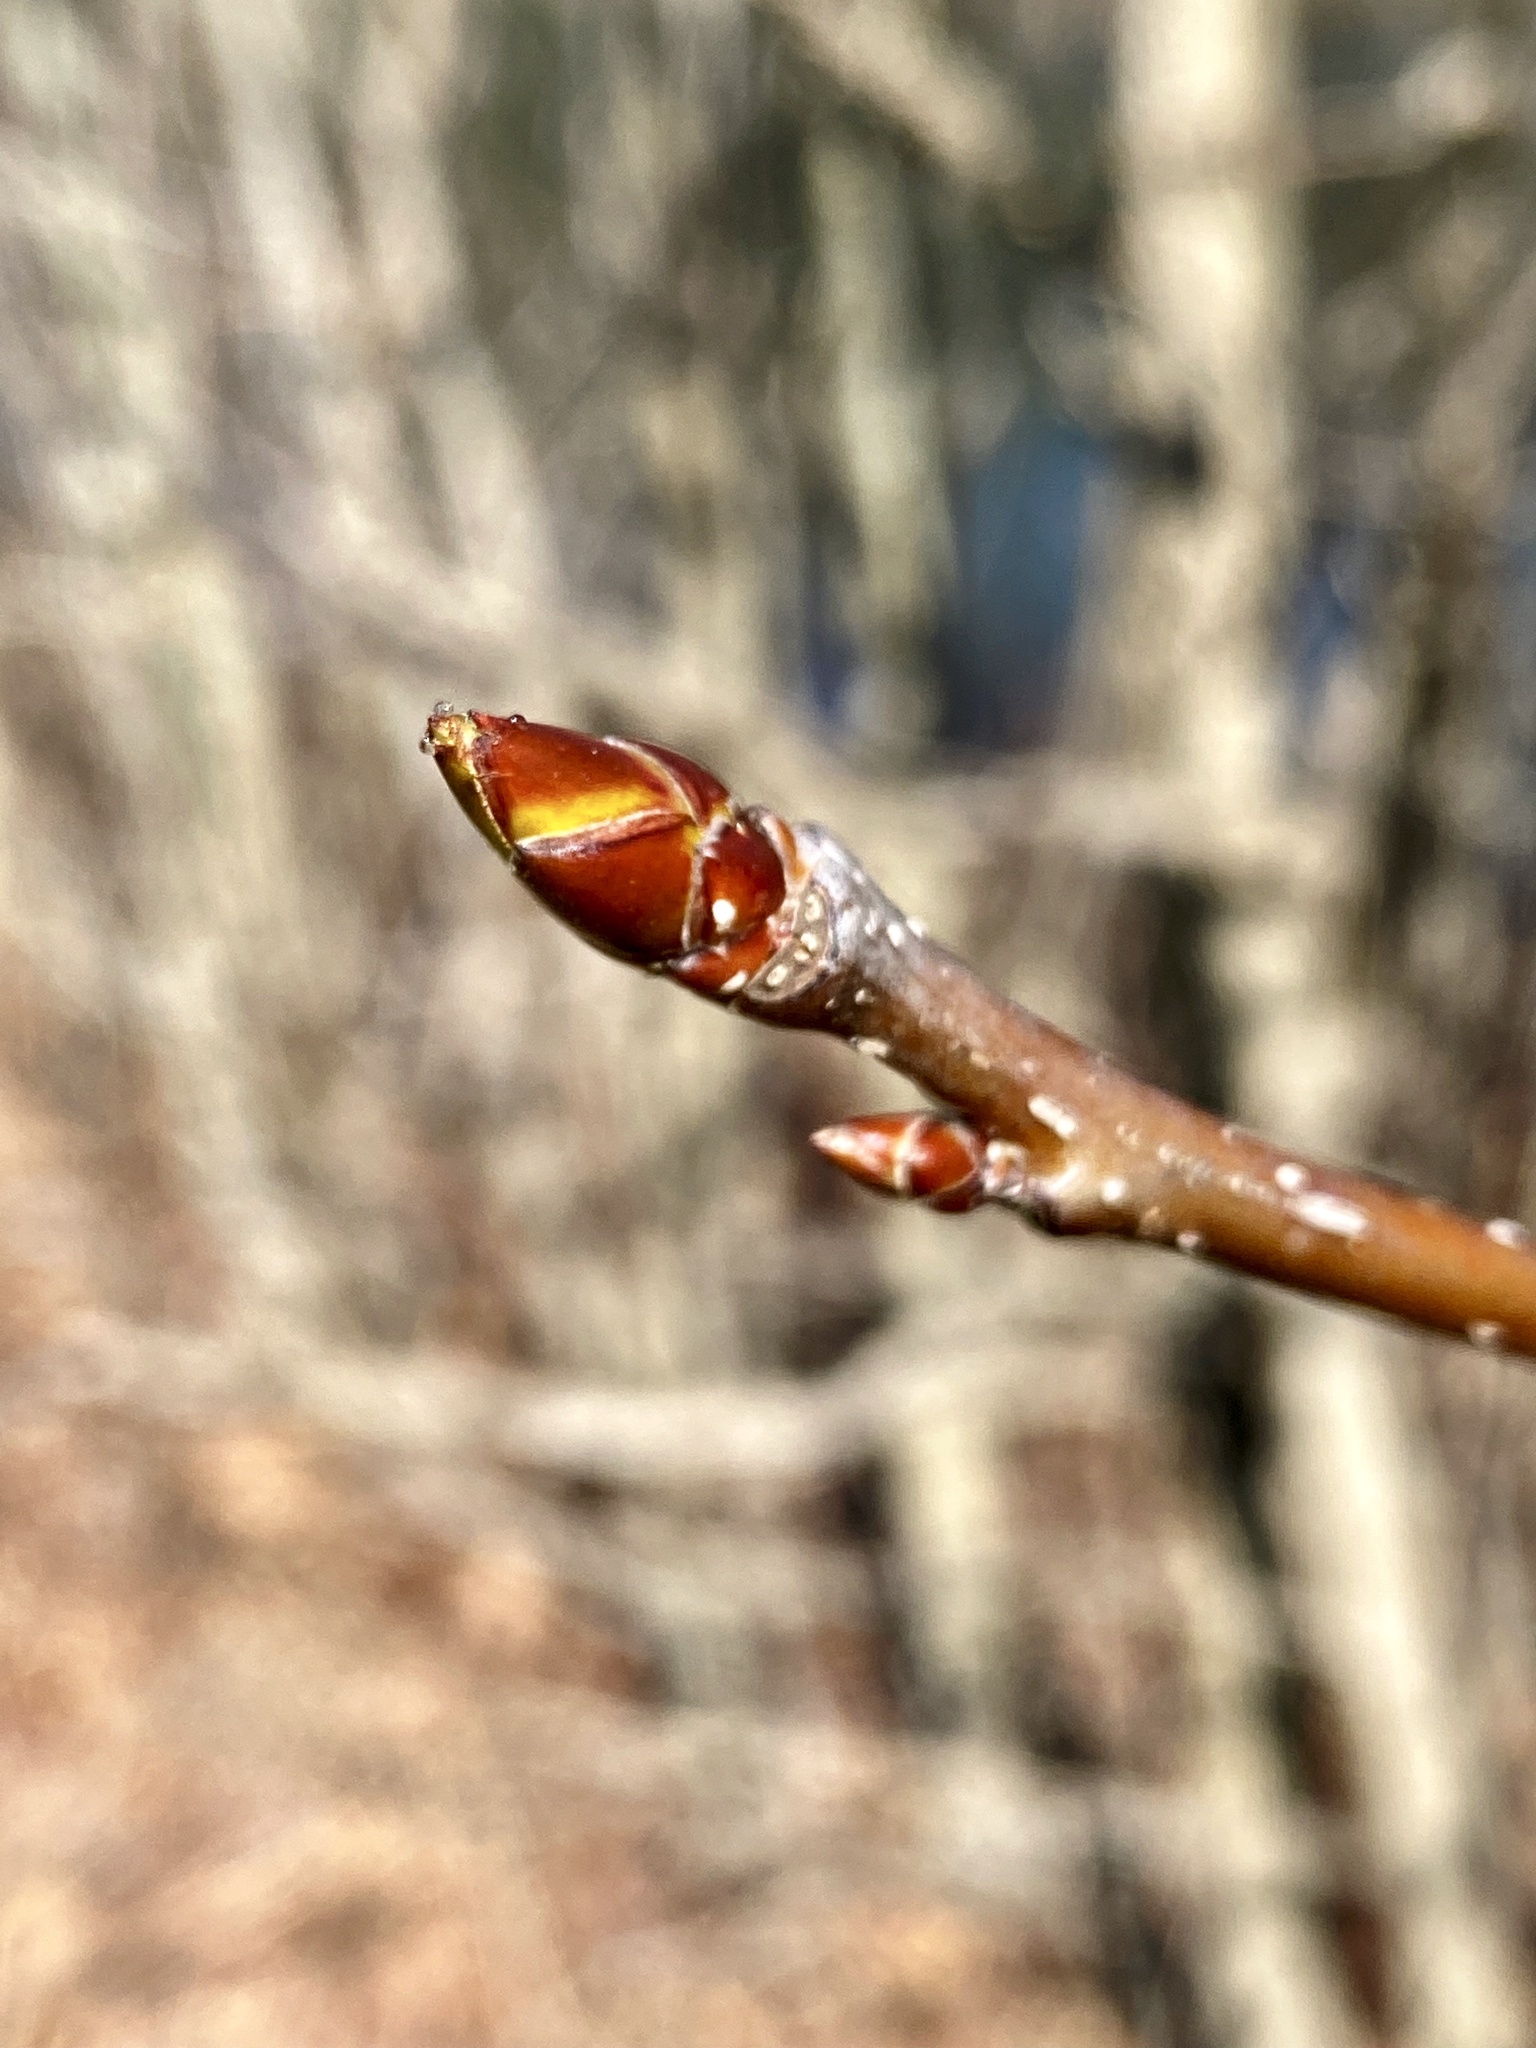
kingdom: Plantae
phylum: Tracheophyta
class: Magnoliopsida
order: Saxifragales
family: Altingiaceae
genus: Liquidambar
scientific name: Liquidambar styraciflua
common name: Sweet gum
